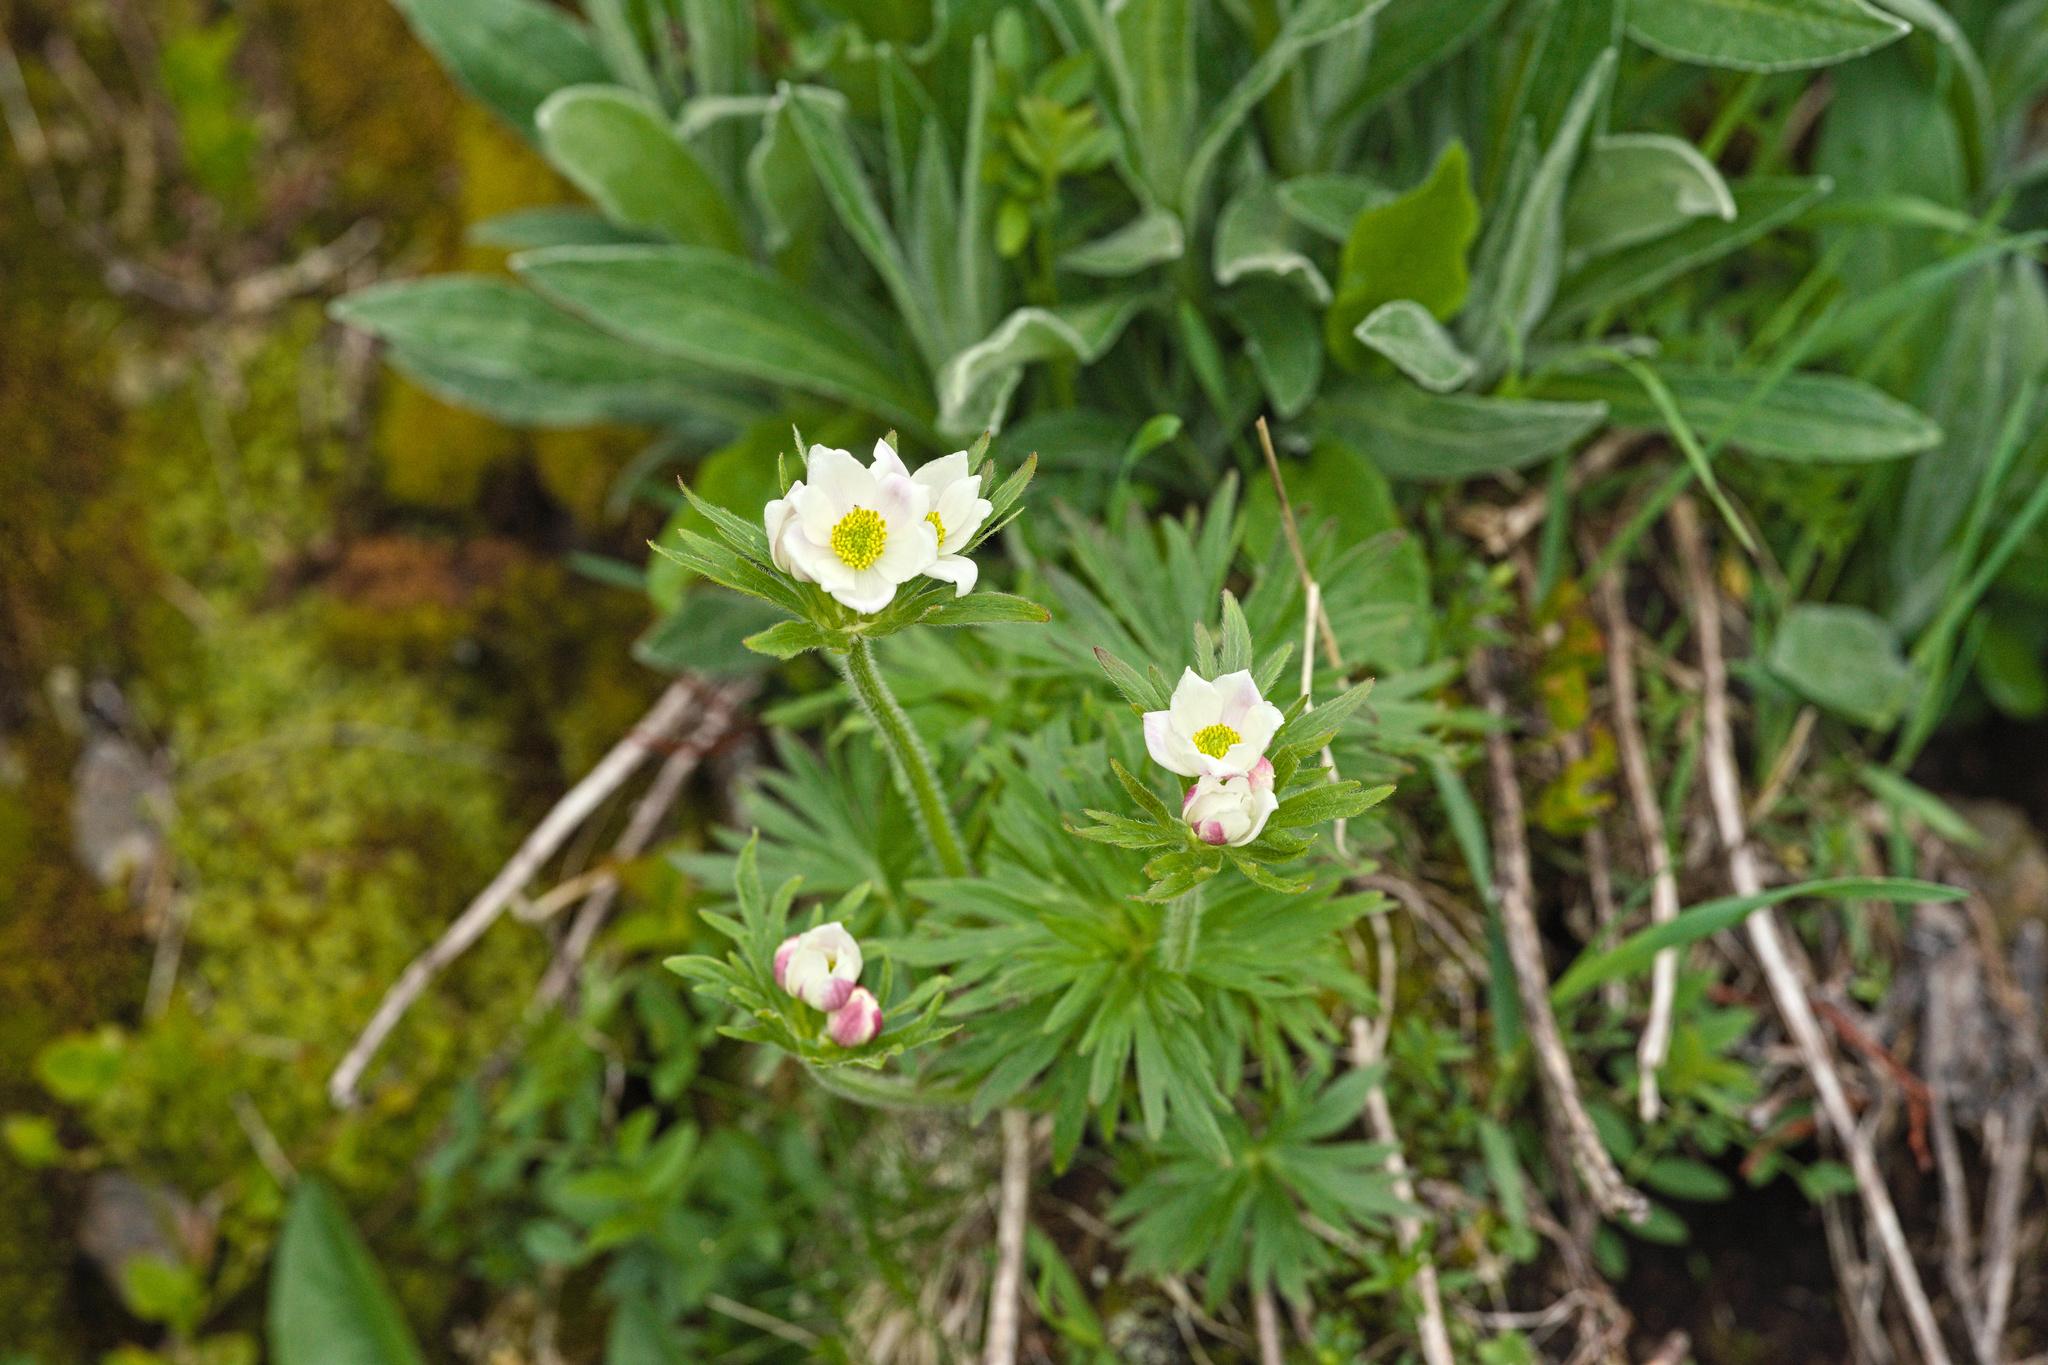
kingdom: Plantae
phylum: Tracheophyta
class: Magnoliopsida
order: Ranunculales
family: Ranunculaceae
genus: Anemonastrum
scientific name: Anemonastrum narcissiflorum
